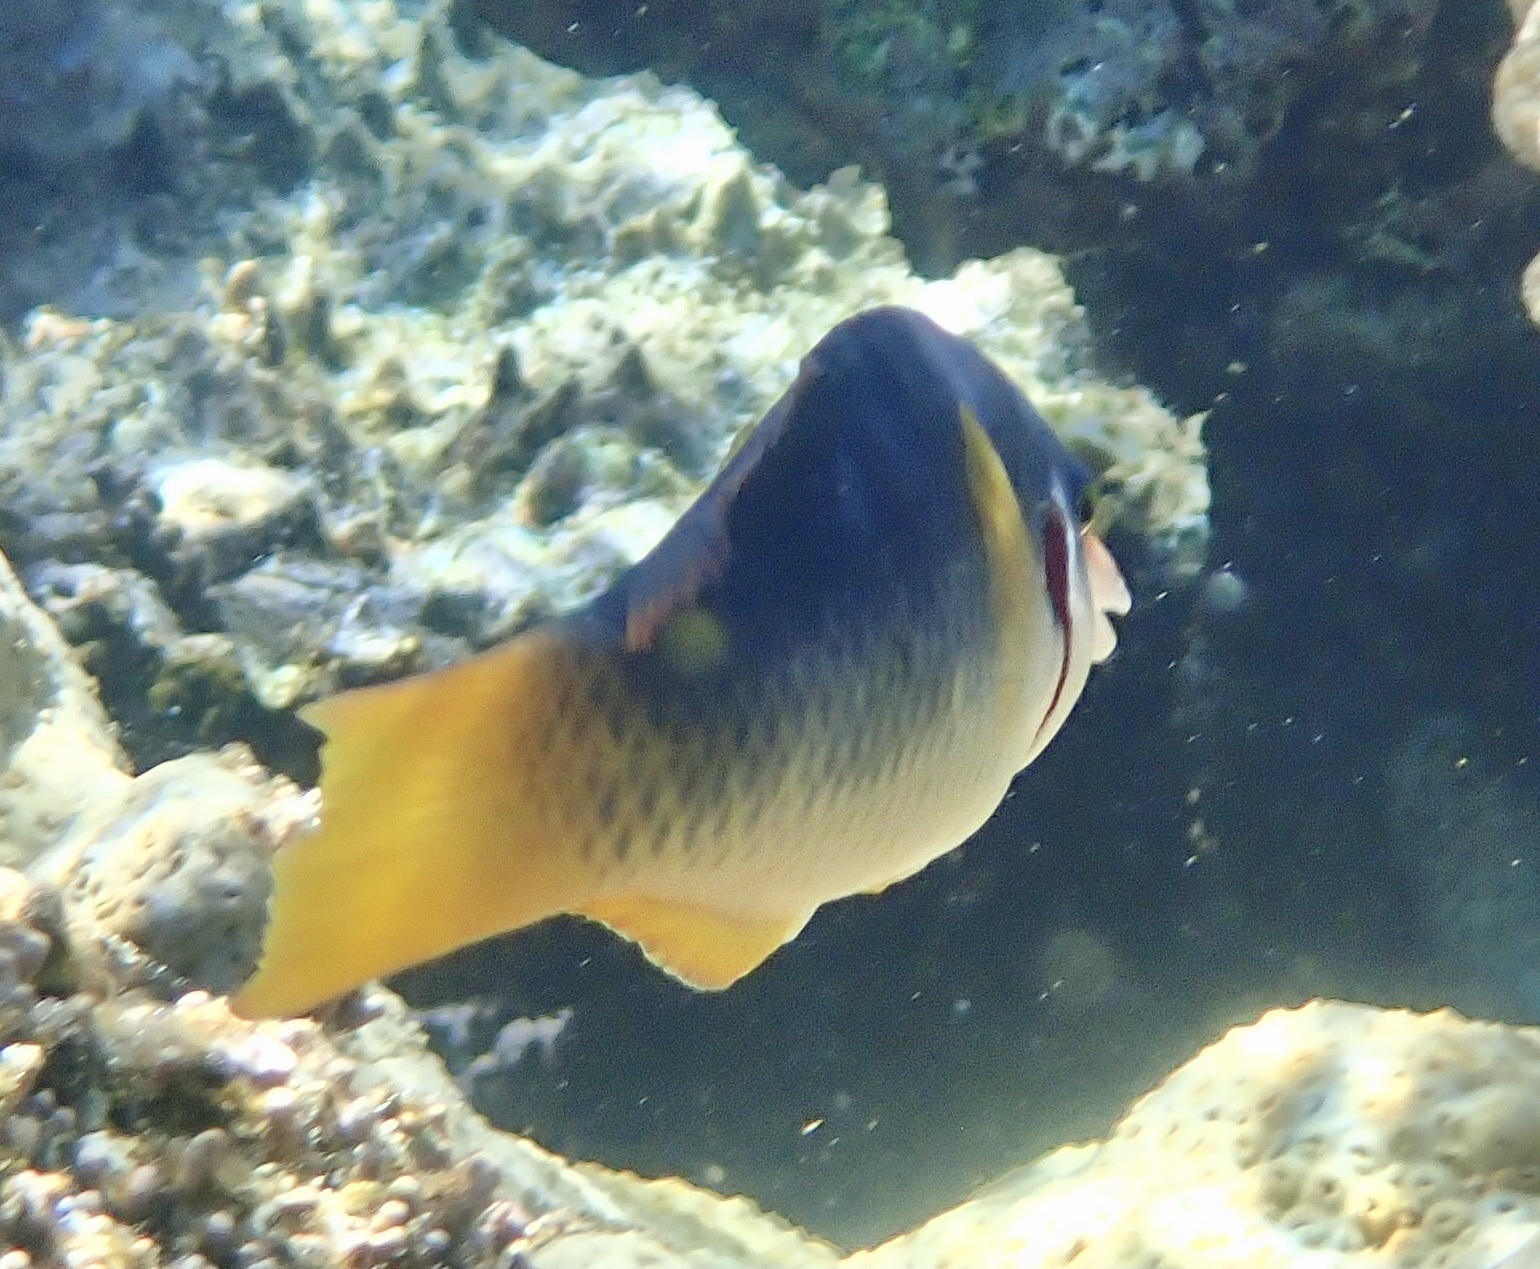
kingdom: Animalia
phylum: Chordata
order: Perciformes
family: Labridae
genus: Gomphosus
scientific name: Gomphosus klunzingeri
